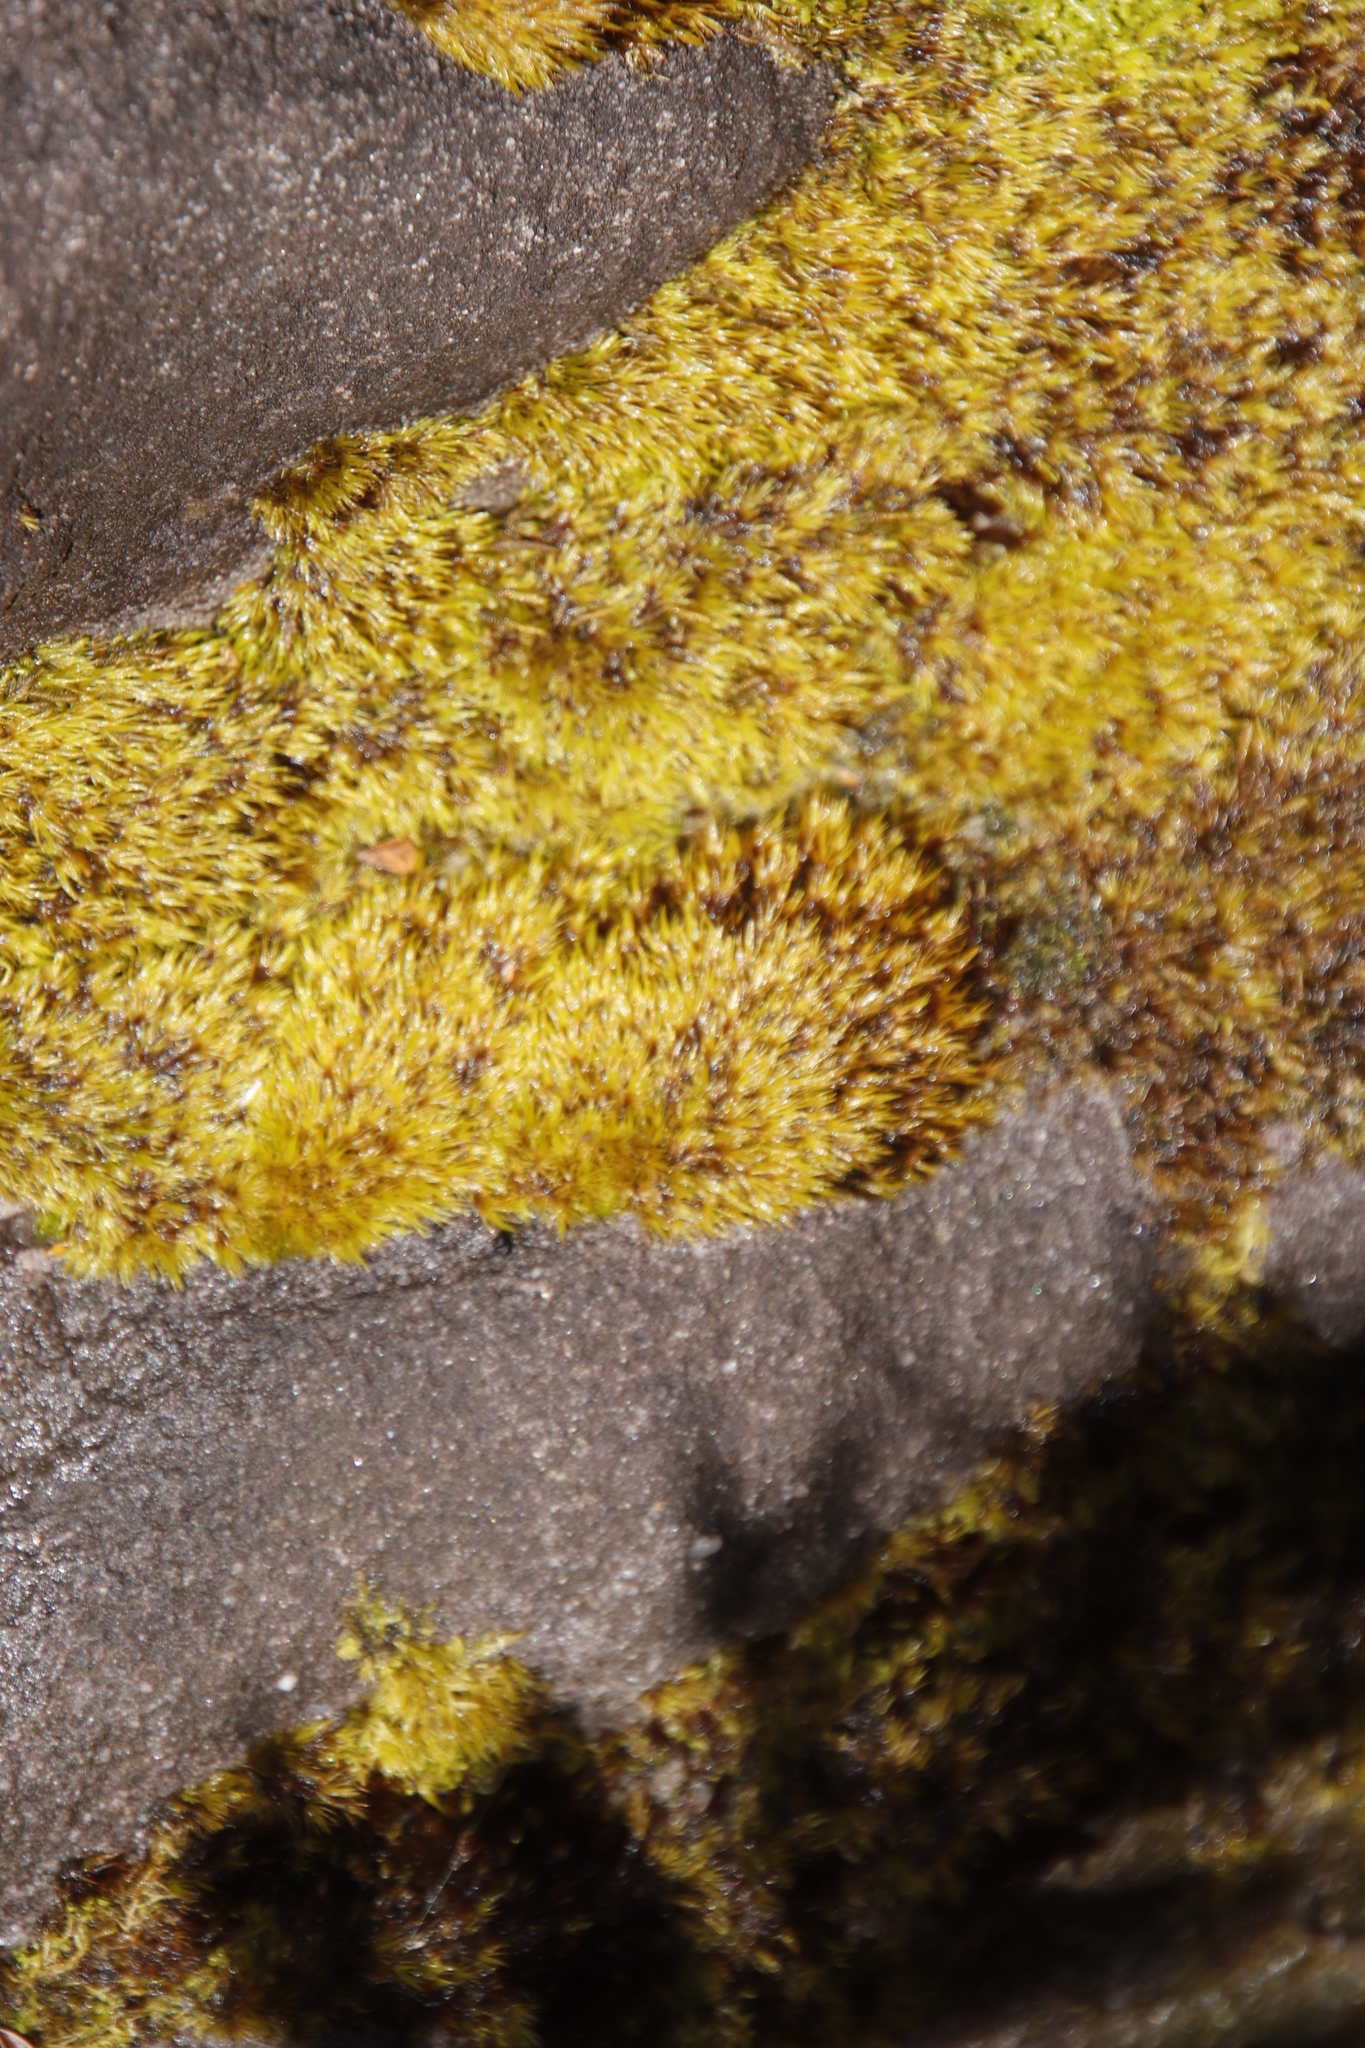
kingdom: Plantae
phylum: Bryophyta
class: Bryopsida
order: Dicranales
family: Dicranaceae
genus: Leucoloma
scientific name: Leucoloma sprengelianum
